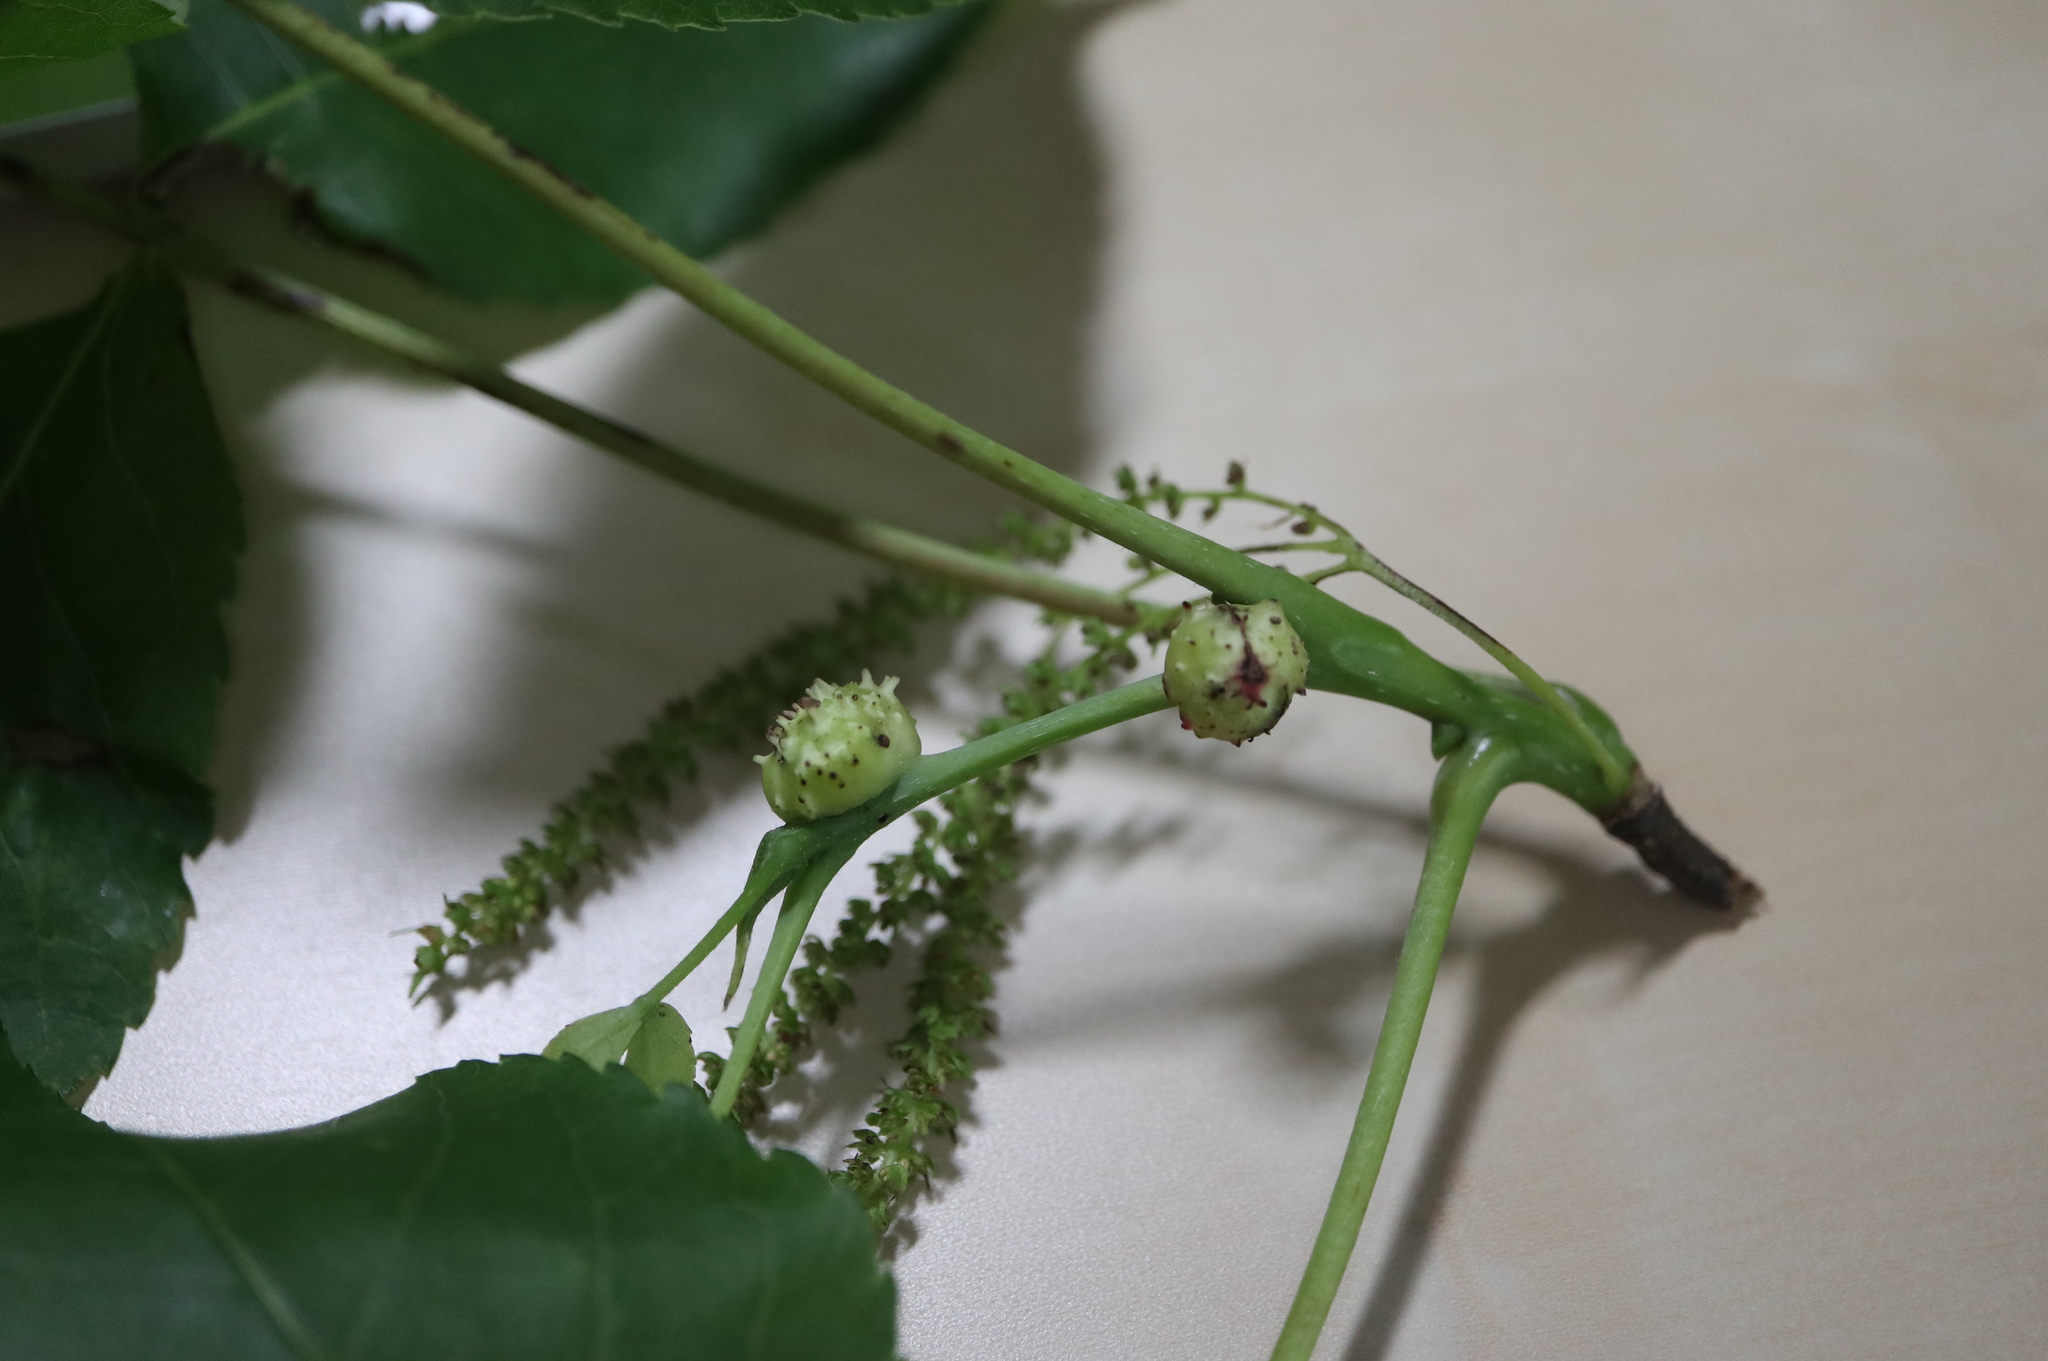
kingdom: Animalia
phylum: Arthropoda
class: Insecta
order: Hemiptera
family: Phylloxeridae
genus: Phylloxera
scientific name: Phylloxera spinosa
